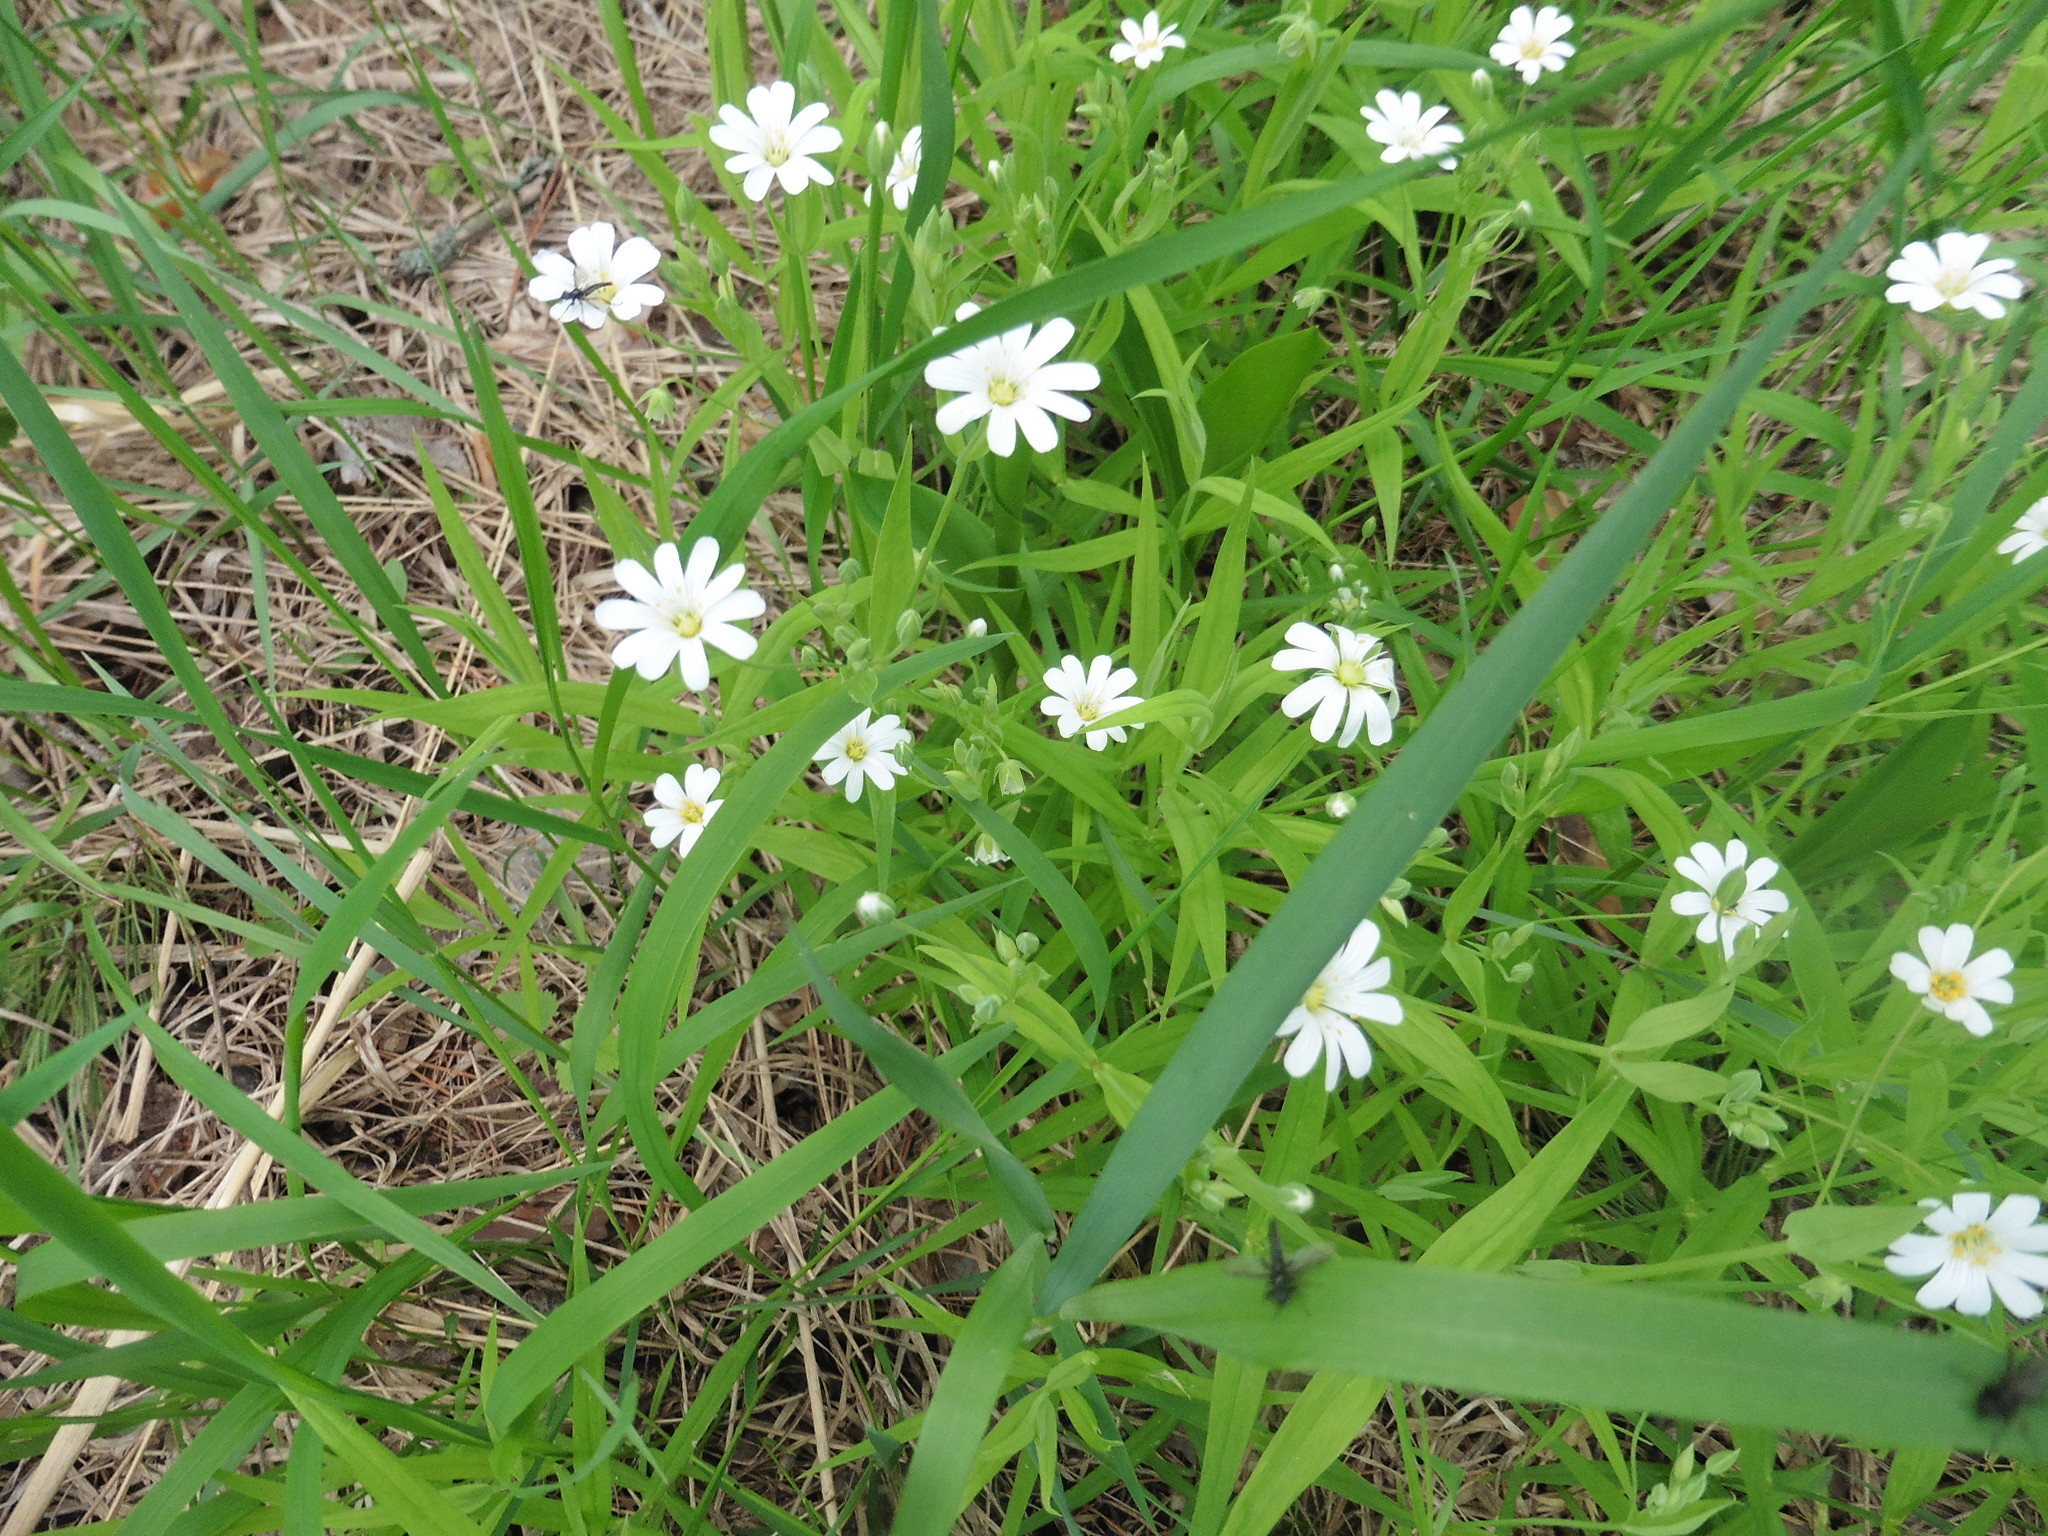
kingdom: Plantae
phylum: Tracheophyta
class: Magnoliopsida
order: Caryophyllales
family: Caryophyllaceae
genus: Rabelera
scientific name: Rabelera holostea
